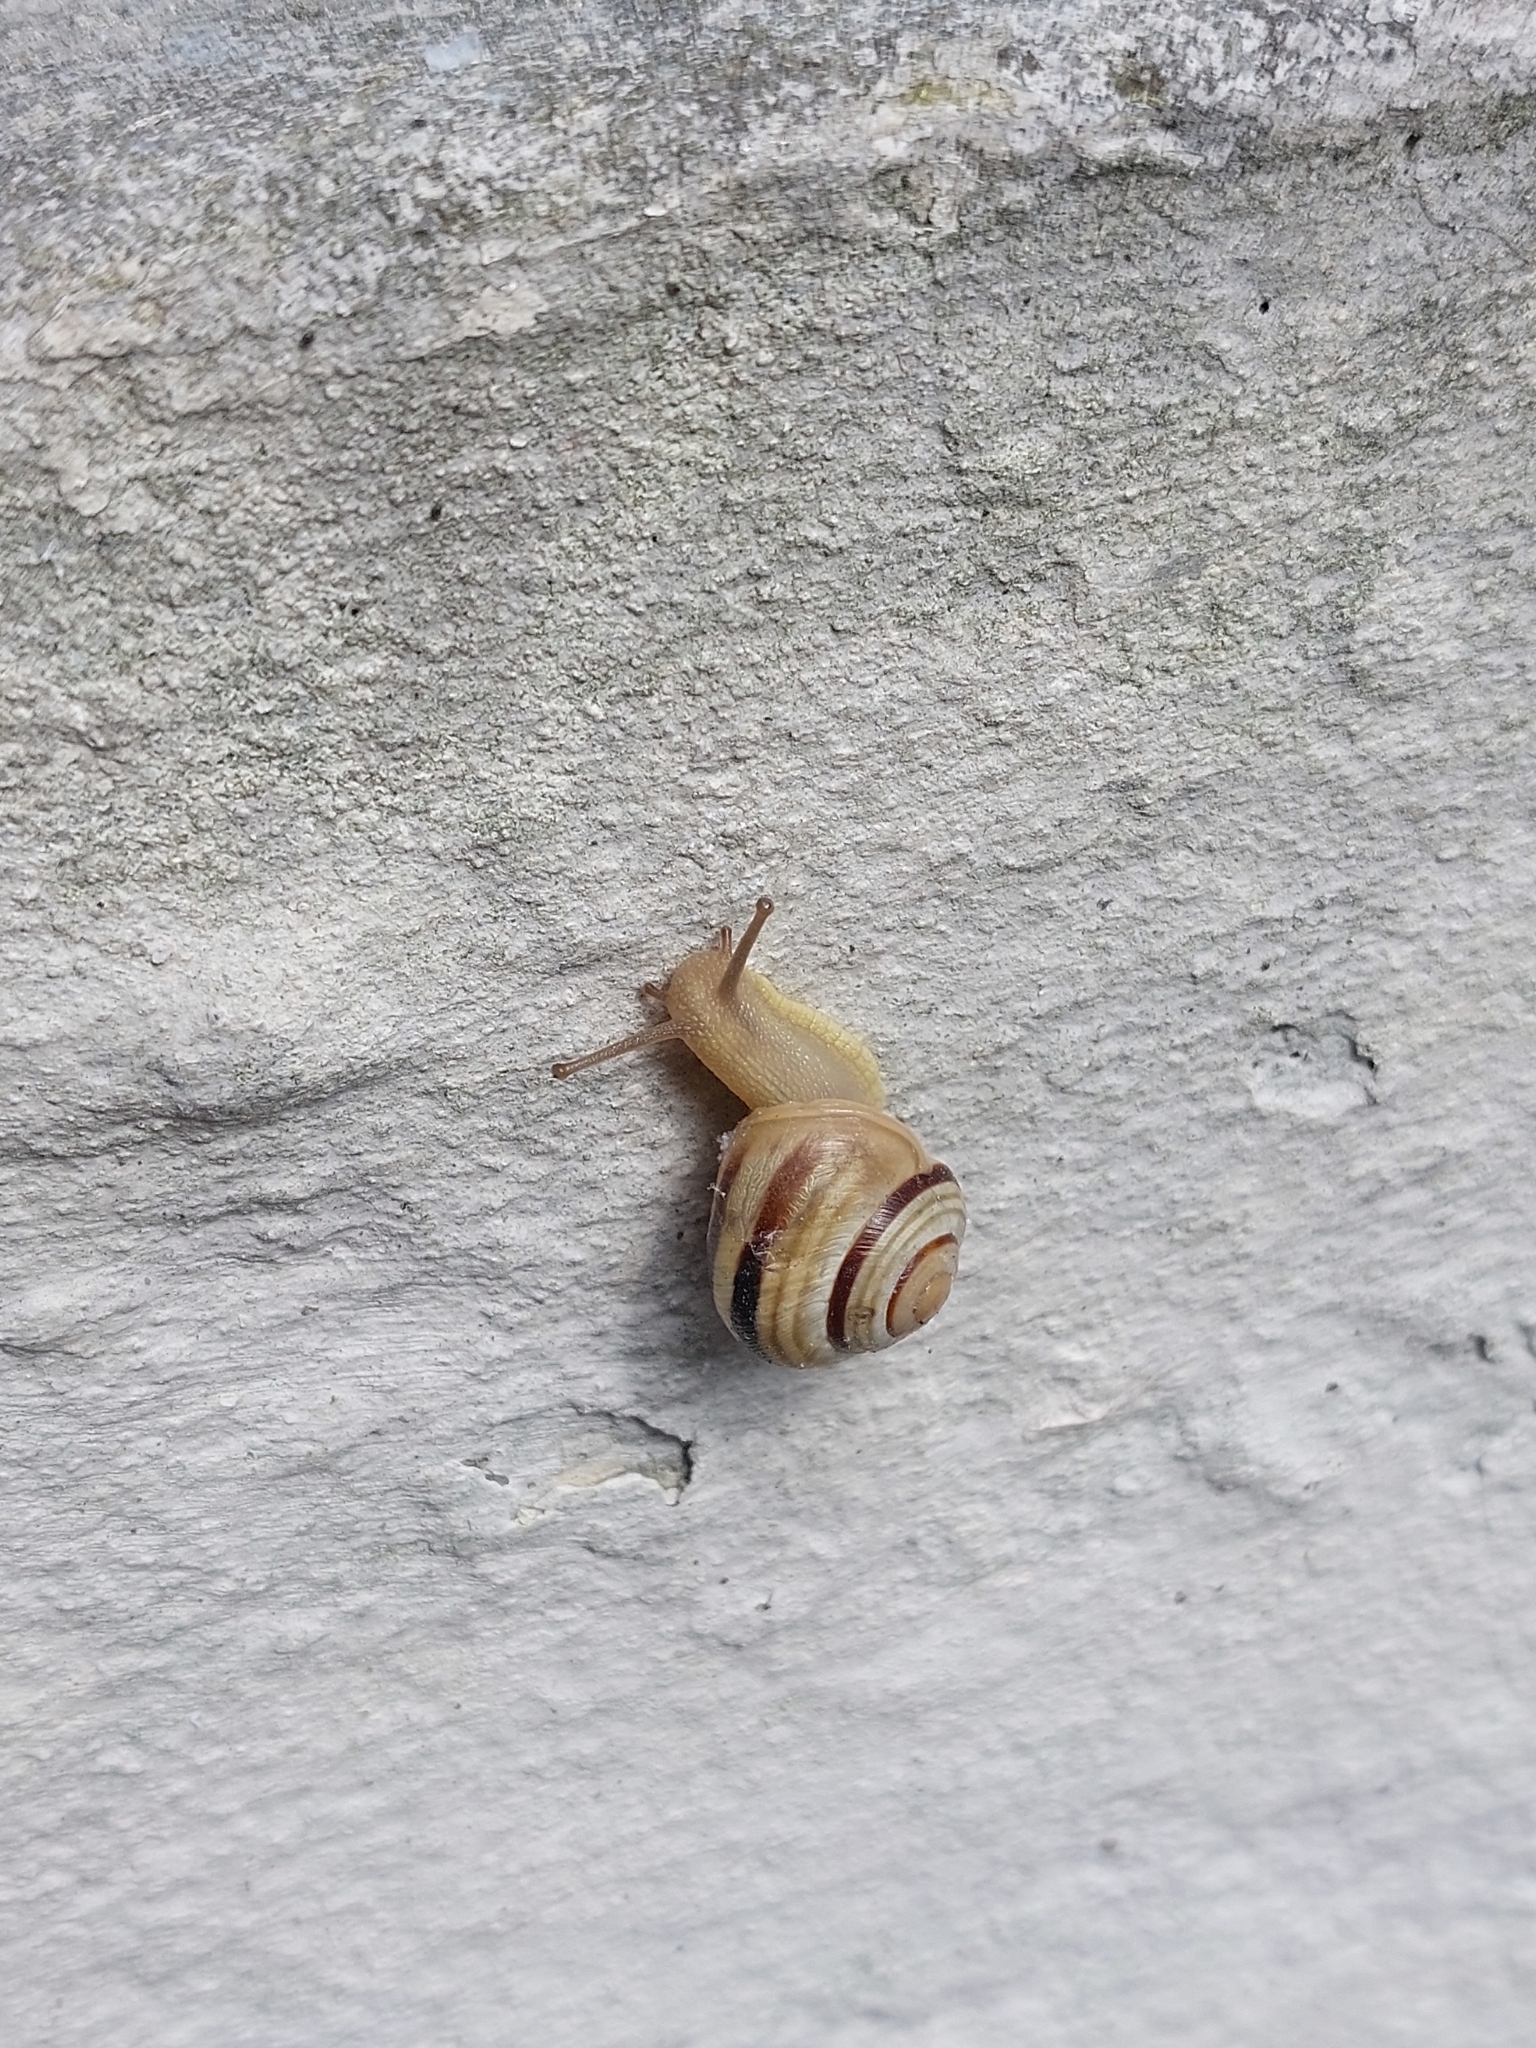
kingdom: Animalia
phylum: Mollusca
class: Gastropoda
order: Stylommatophora
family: Helicidae
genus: Caucasotachea
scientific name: Caucasotachea vindobonensis
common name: European helicid land snail
